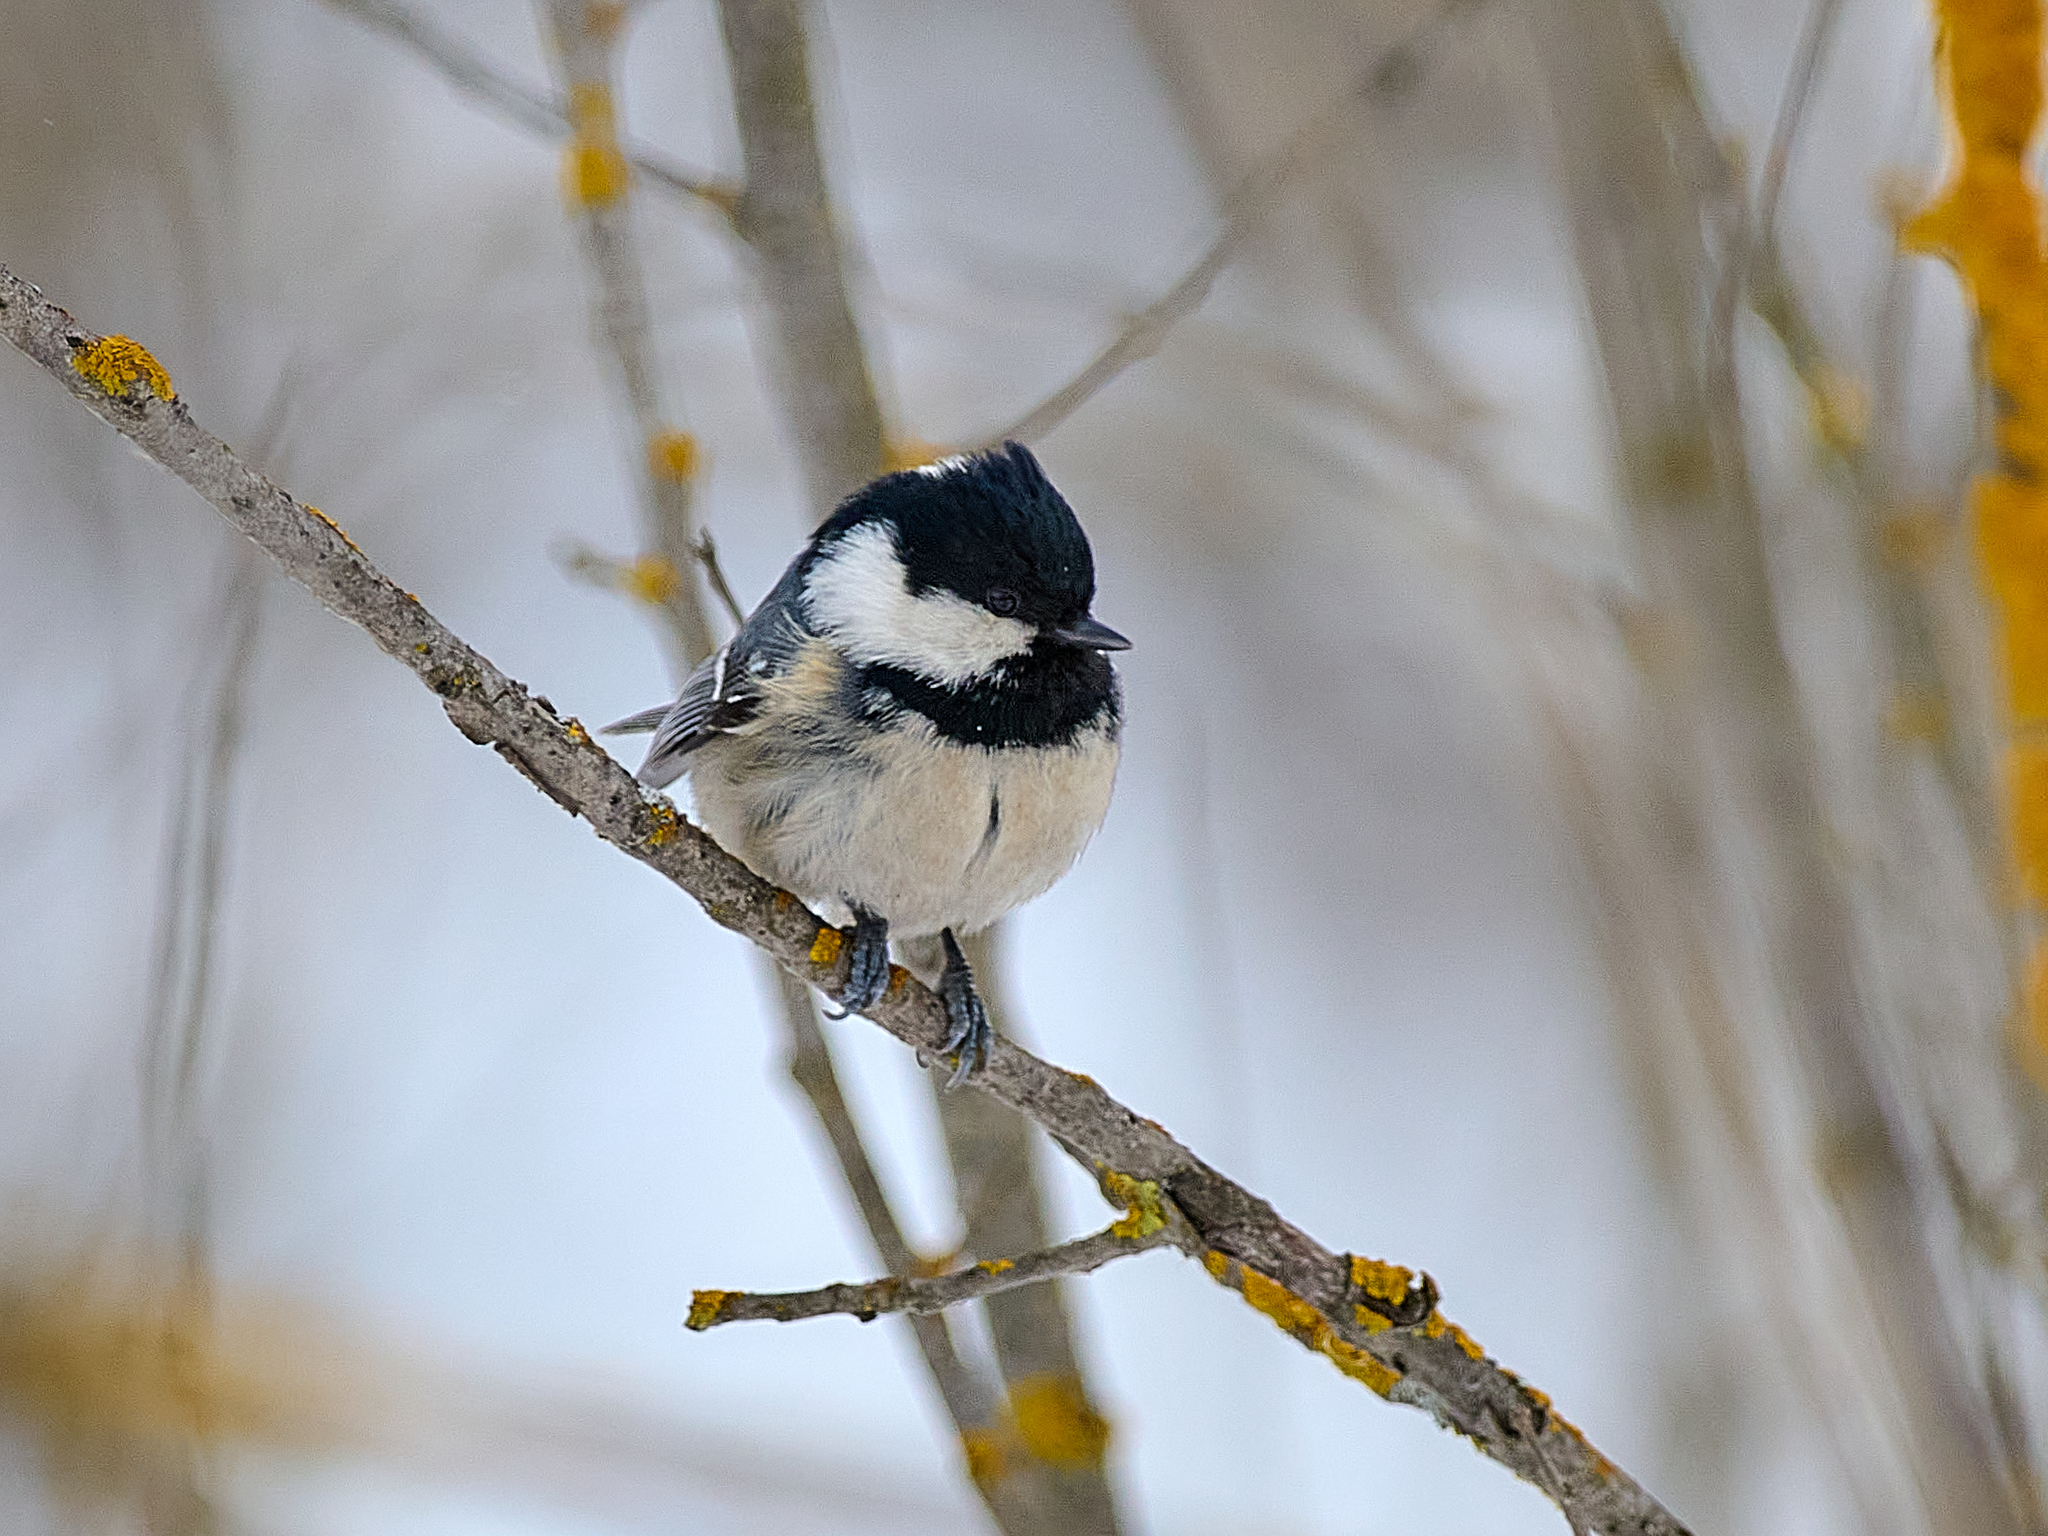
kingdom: Animalia
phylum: Chordata
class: Aves
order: Passeriformes
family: Paridae
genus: Periparus
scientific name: Periparus ater
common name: Coal tit
